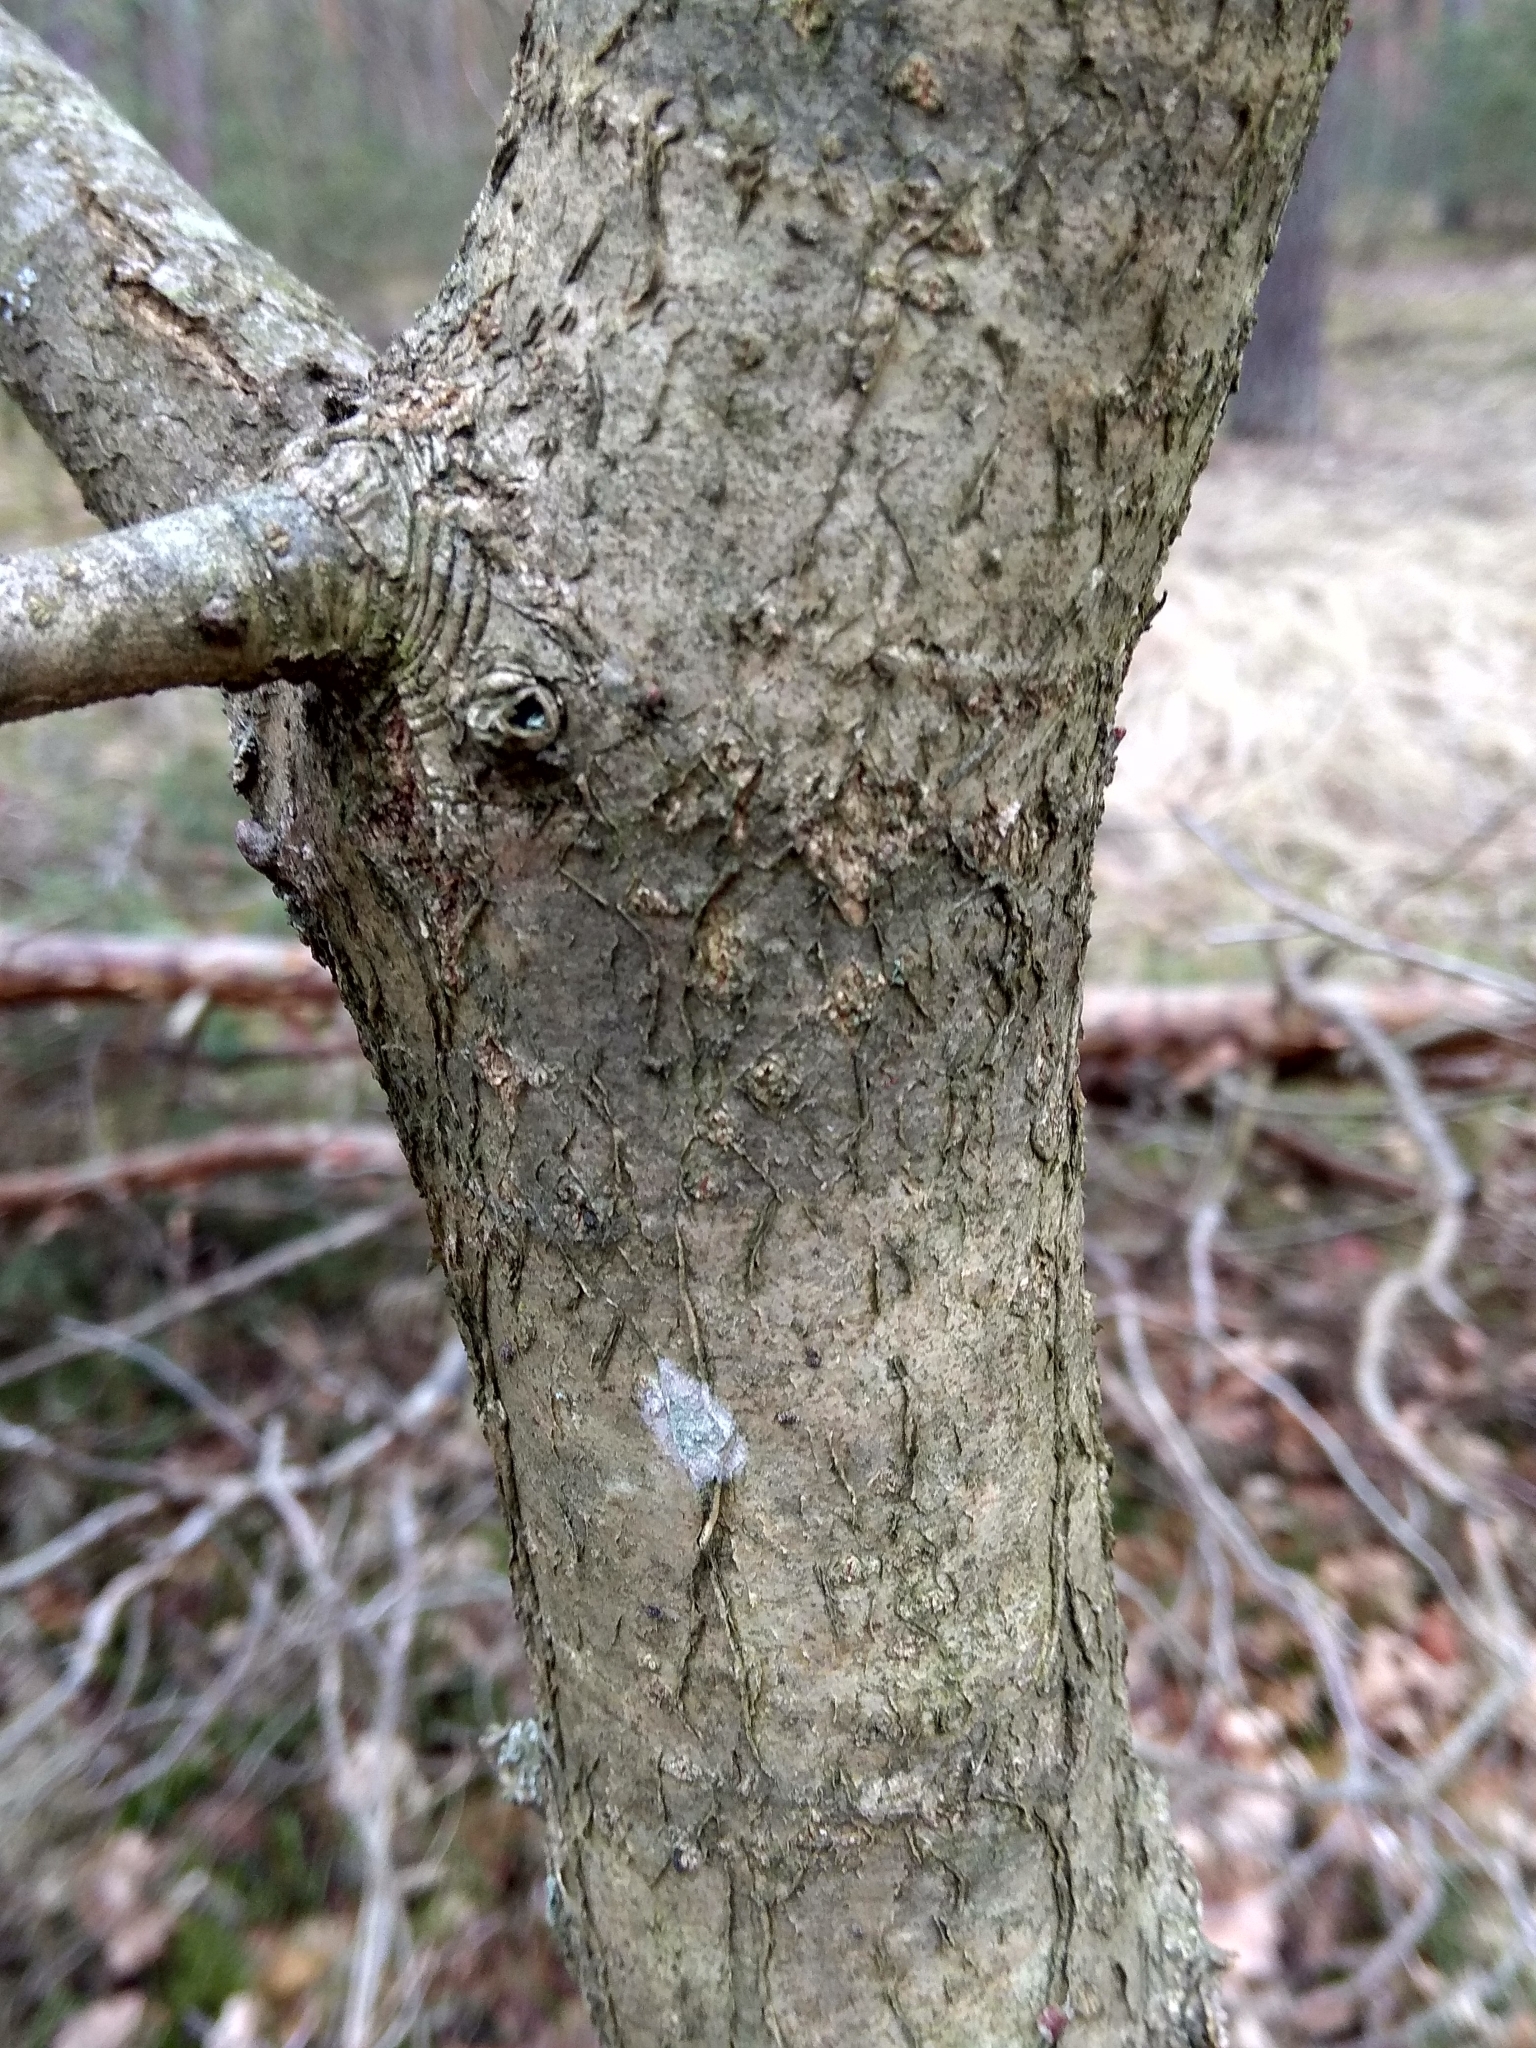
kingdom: Plantae
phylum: Tracheophyta
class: Magnoliopsida
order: Fagales
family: Fagaceae
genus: Quercus
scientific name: Quercus robur
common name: Pedunculate oak
